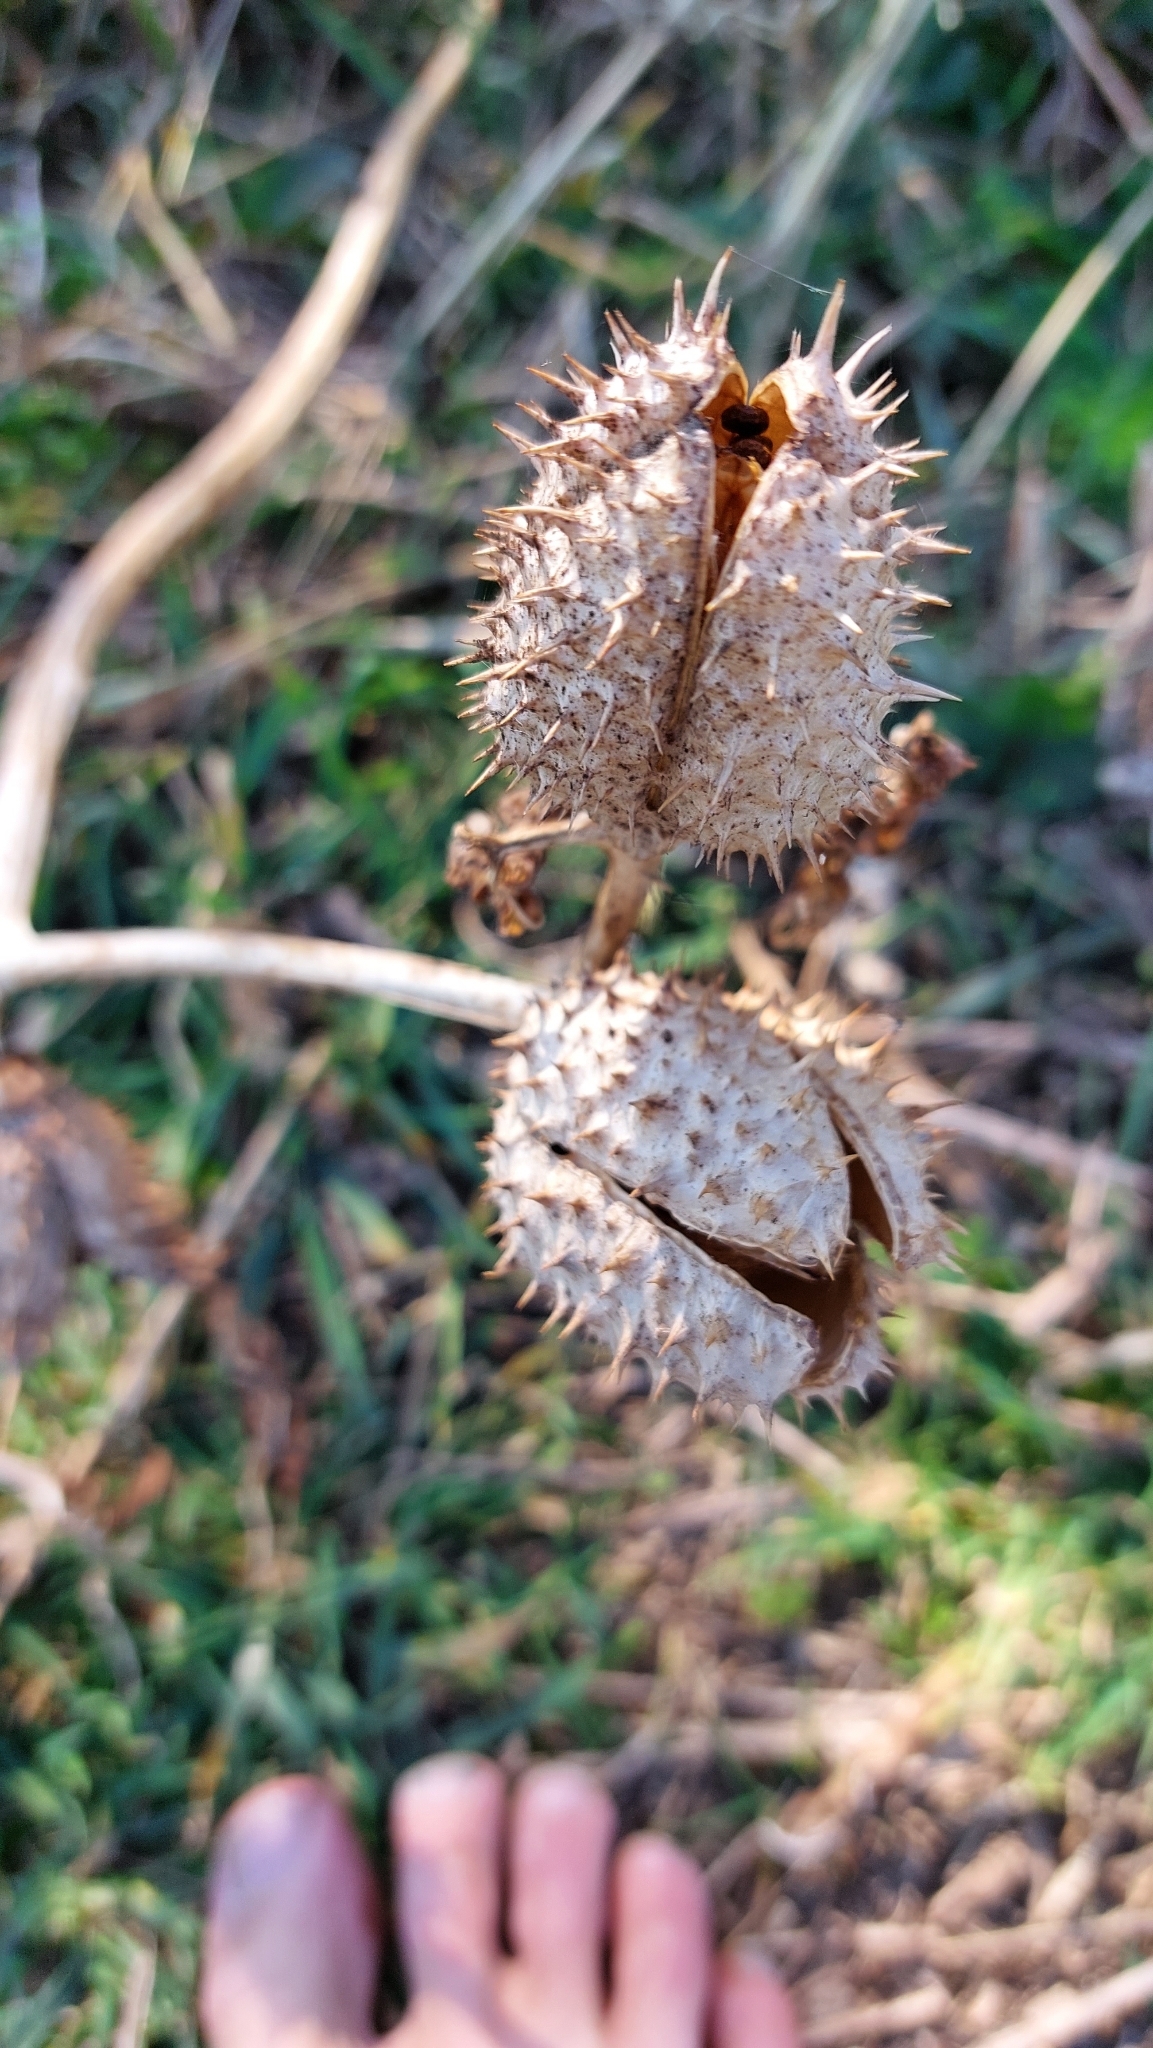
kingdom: Plantae
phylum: Tracheophyta
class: Magnoliopsida
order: Solanales
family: Solanaceae
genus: Datura
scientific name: Datura stramonium
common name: Thorn-apple
